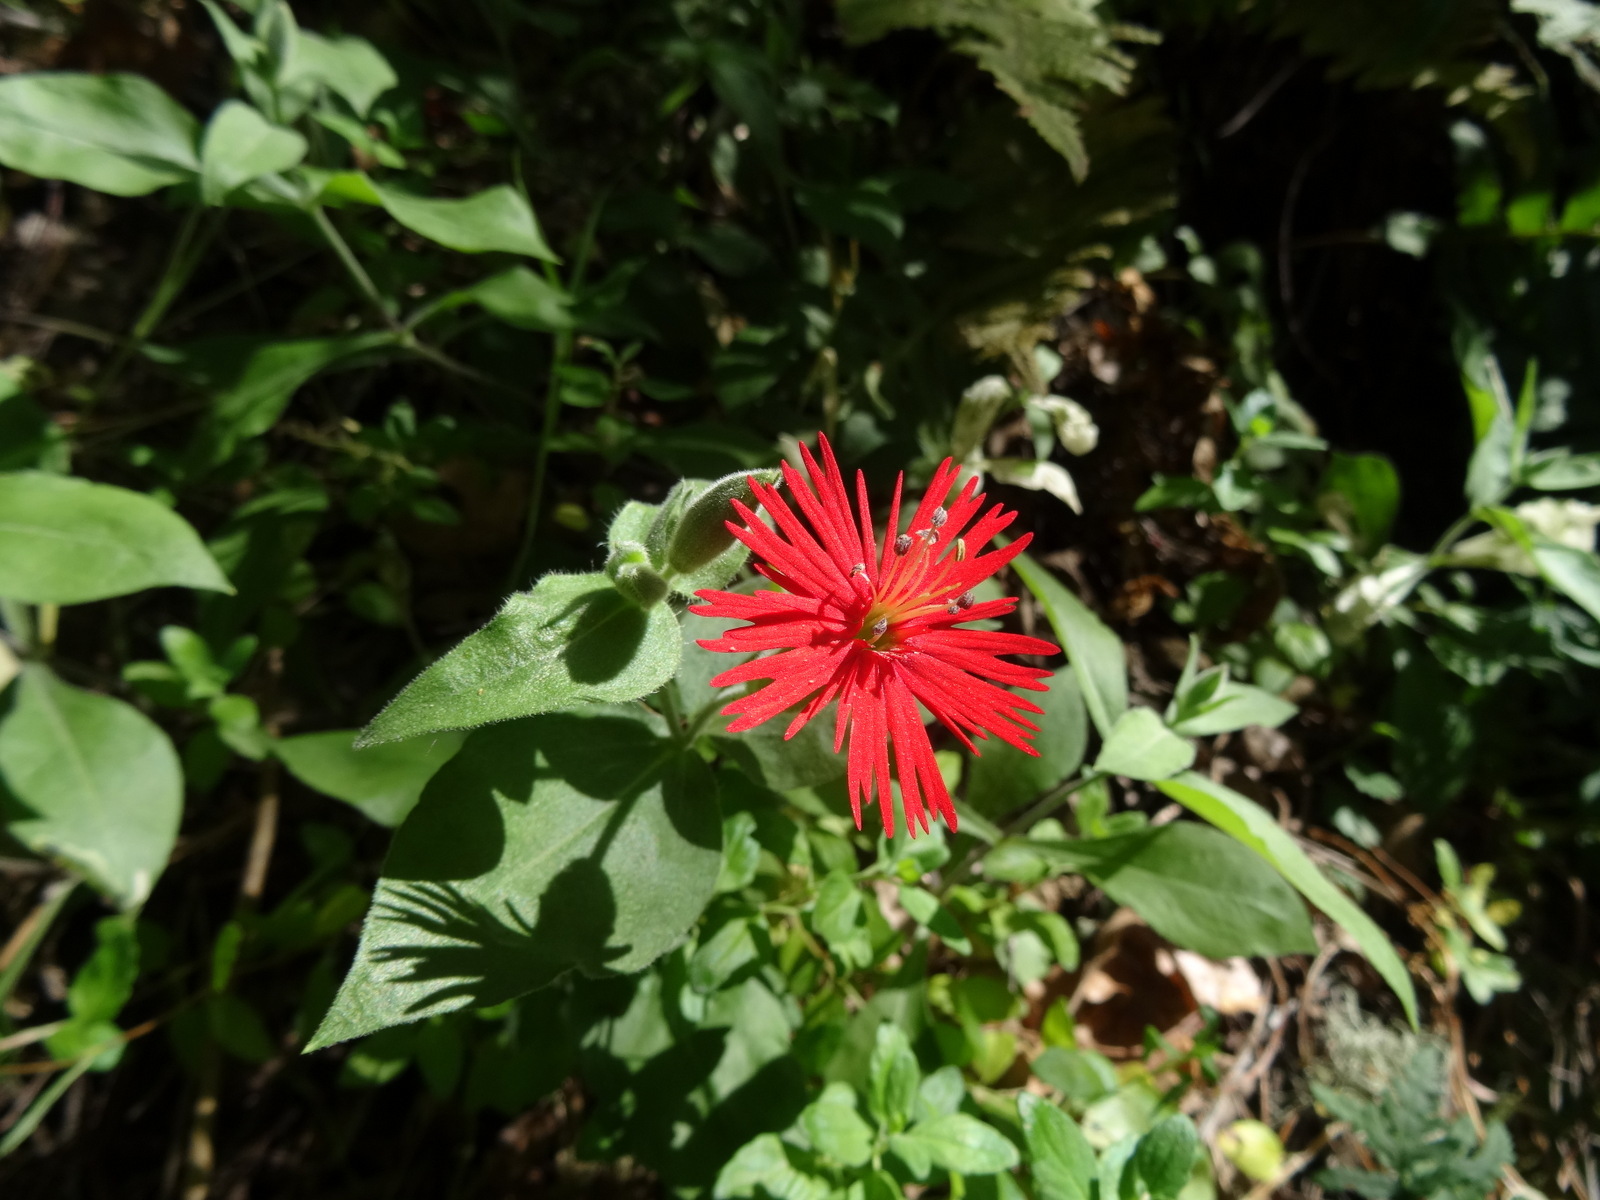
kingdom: Plantae
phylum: Tracheophyta
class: Magnoliopsida
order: Caryophyllales
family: Caryophyllaceae
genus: Silene
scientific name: Silene laciniata
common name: Indian-pink
